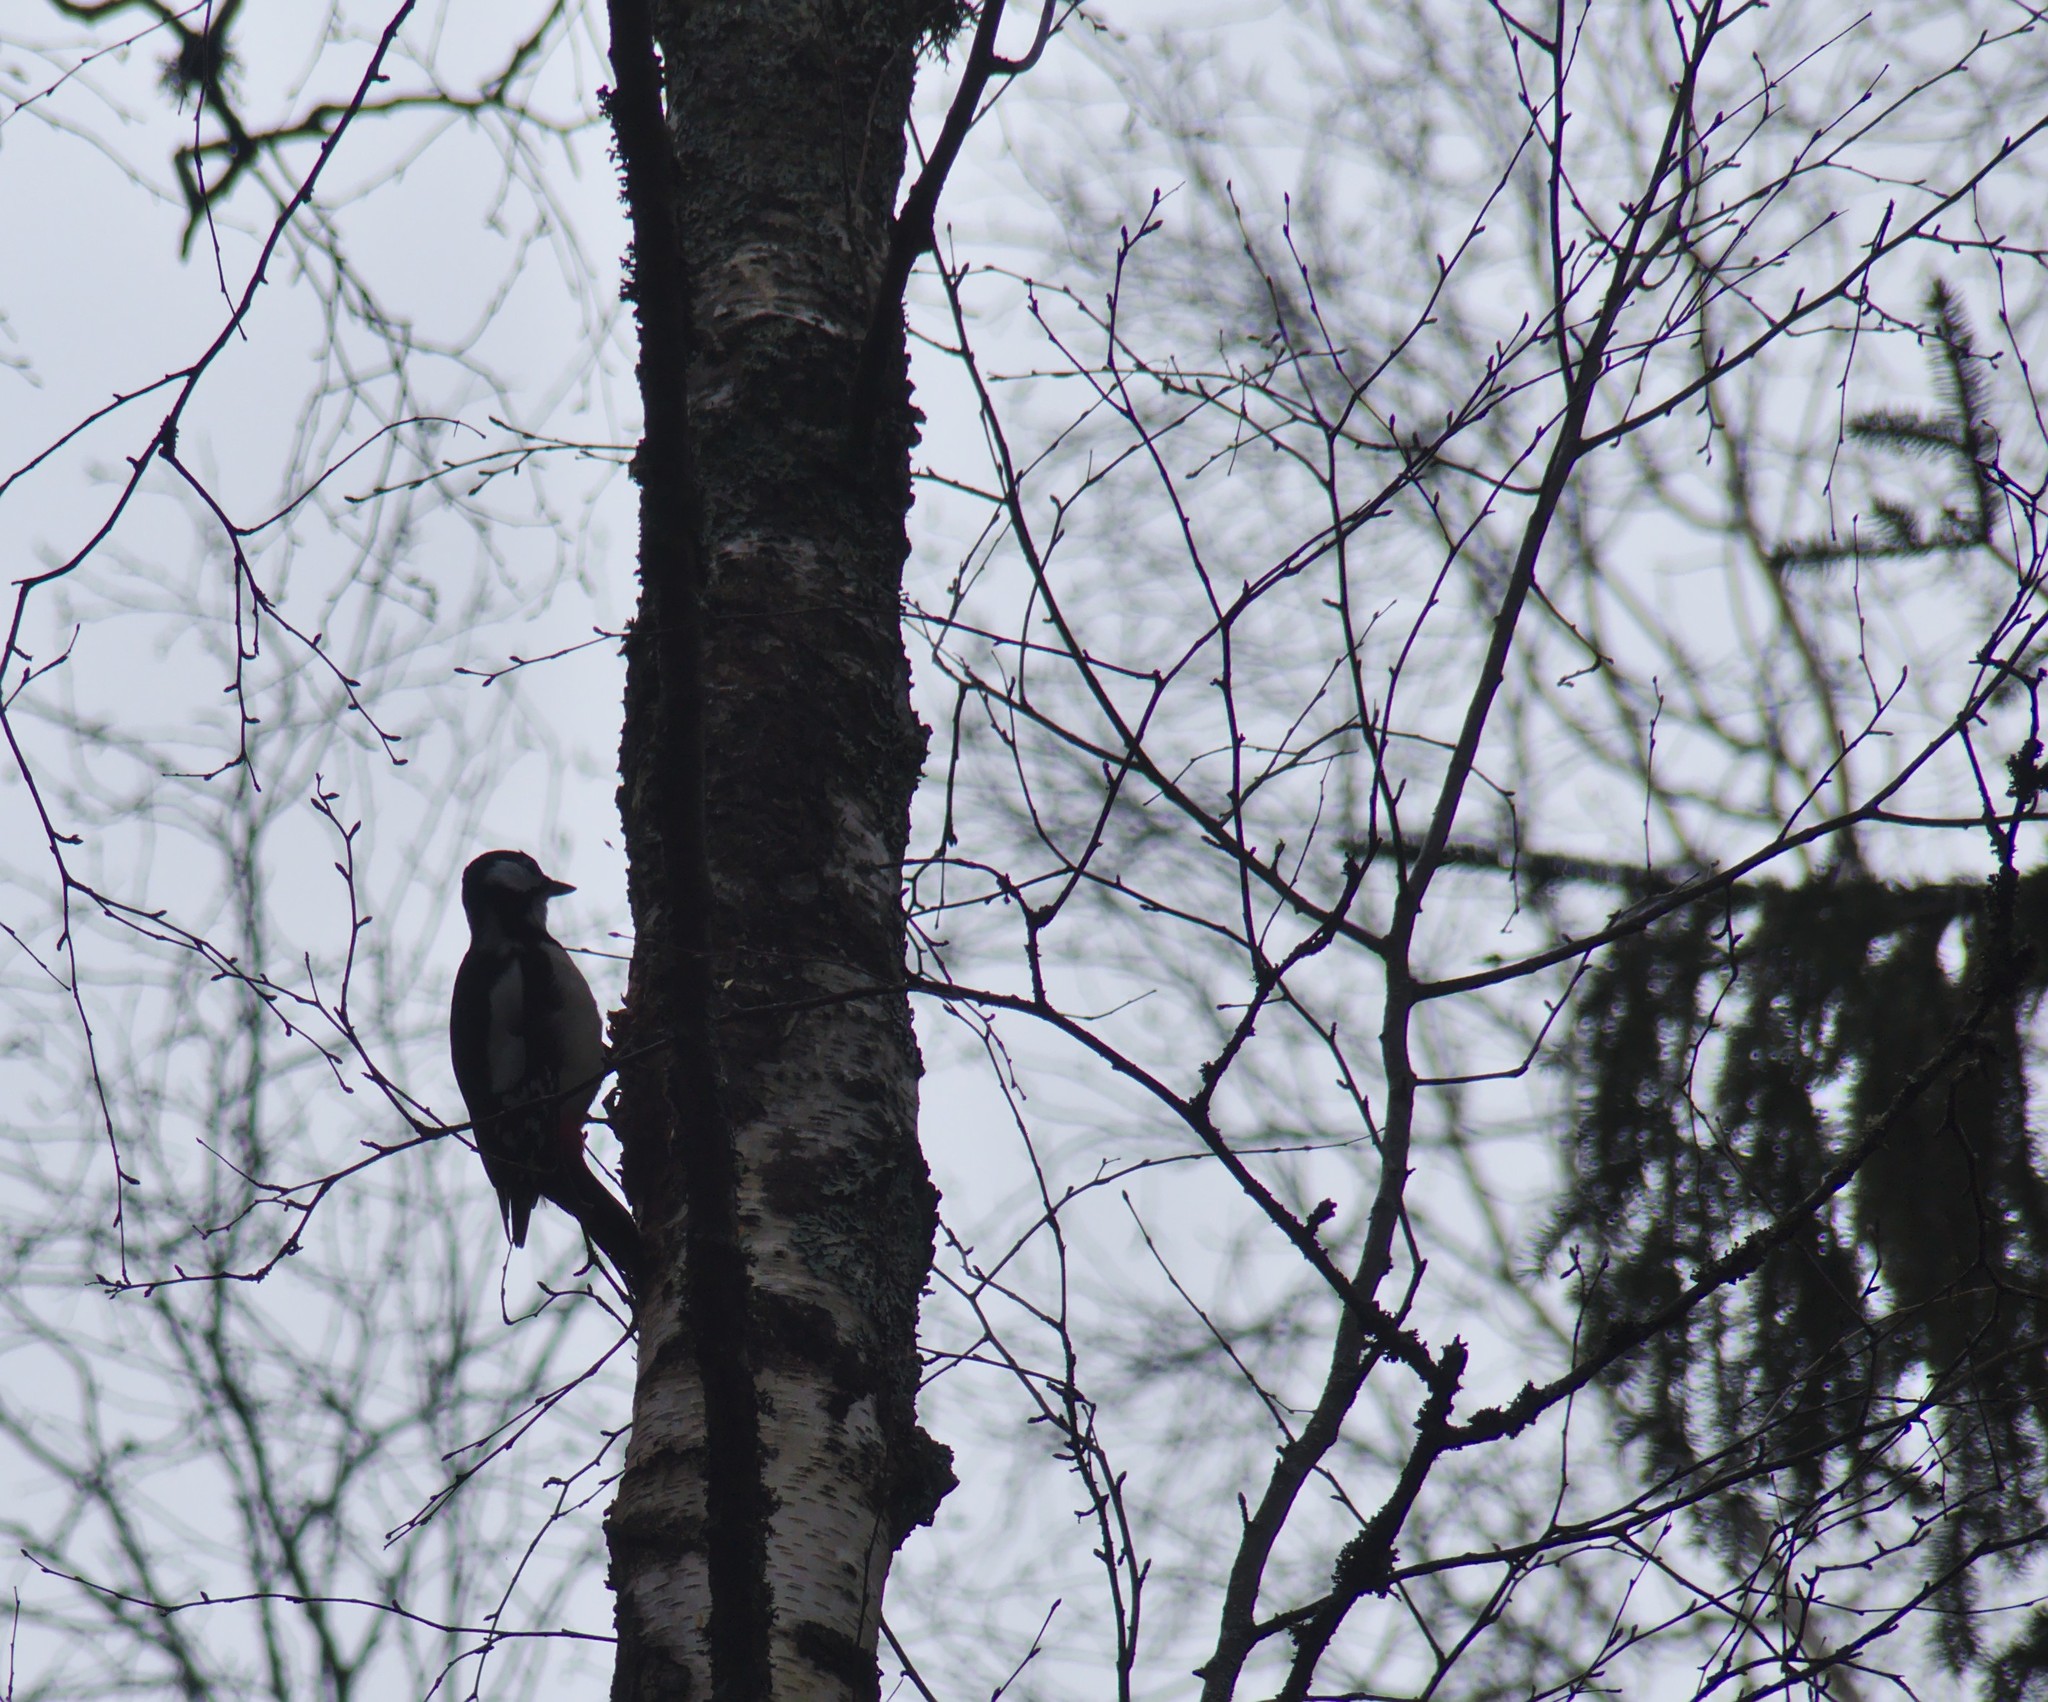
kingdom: Animalia
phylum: Chordata
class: Aves
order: Piciformes
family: Picidae
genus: Dendrocopos
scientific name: Dendrocopos major
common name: Great spotted woodpecker
